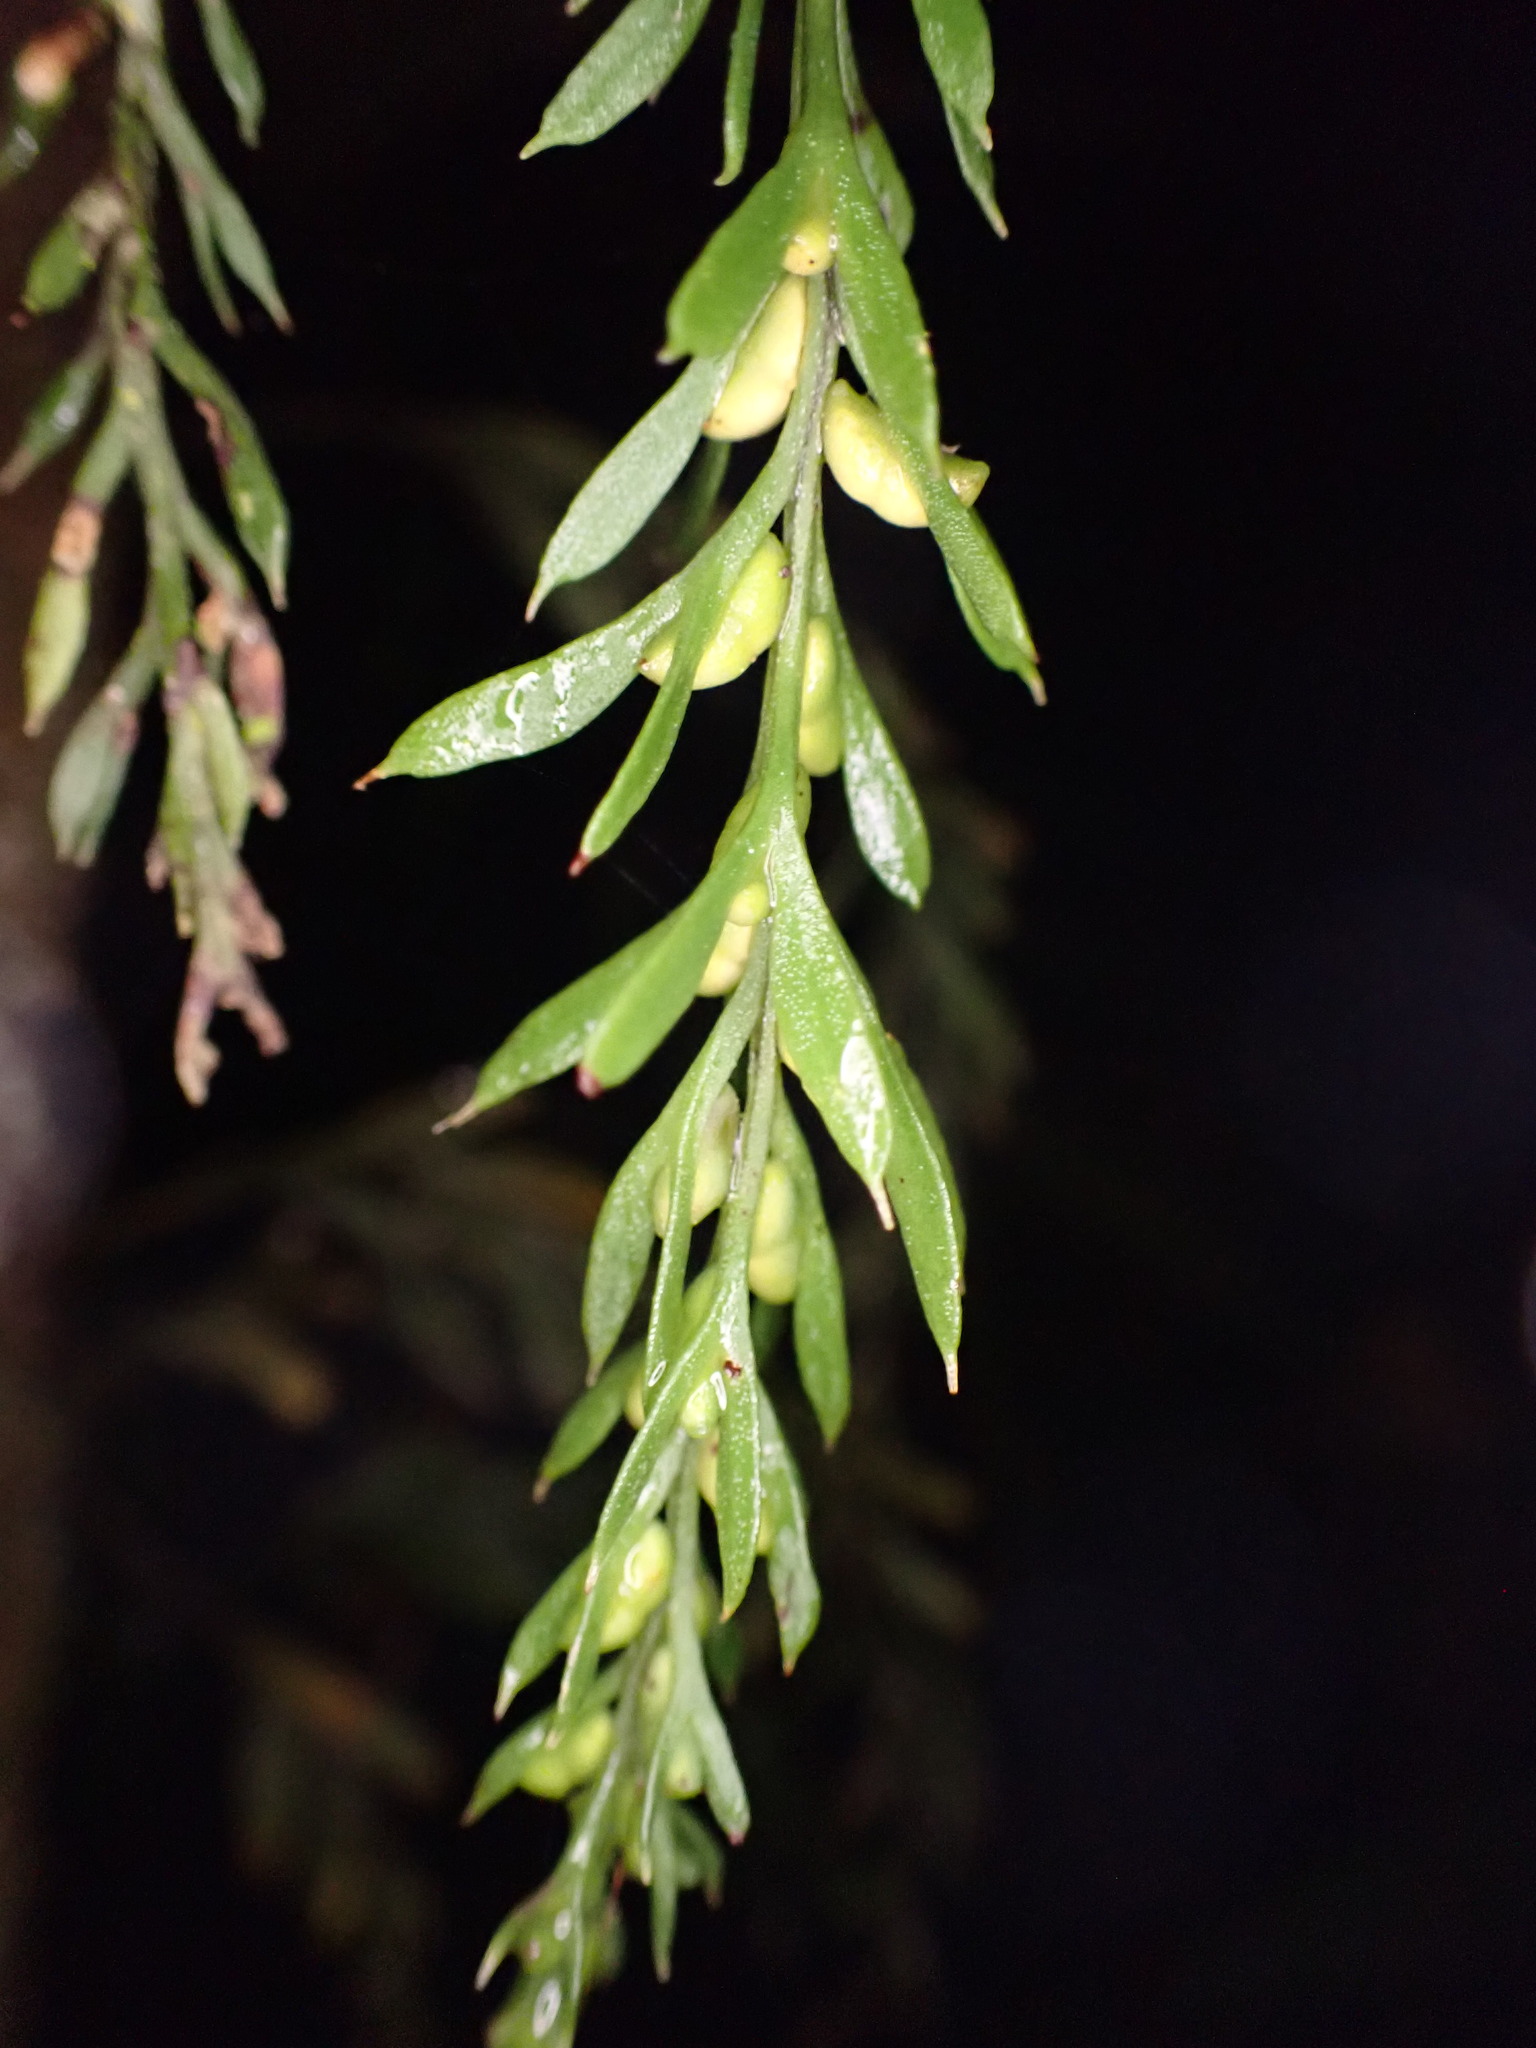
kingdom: Plantae
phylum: Tracheophyta
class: Polypodiopsida
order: Psilotales
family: Psilotaceae
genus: Tmesipteris
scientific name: Tmesipteris elongata
